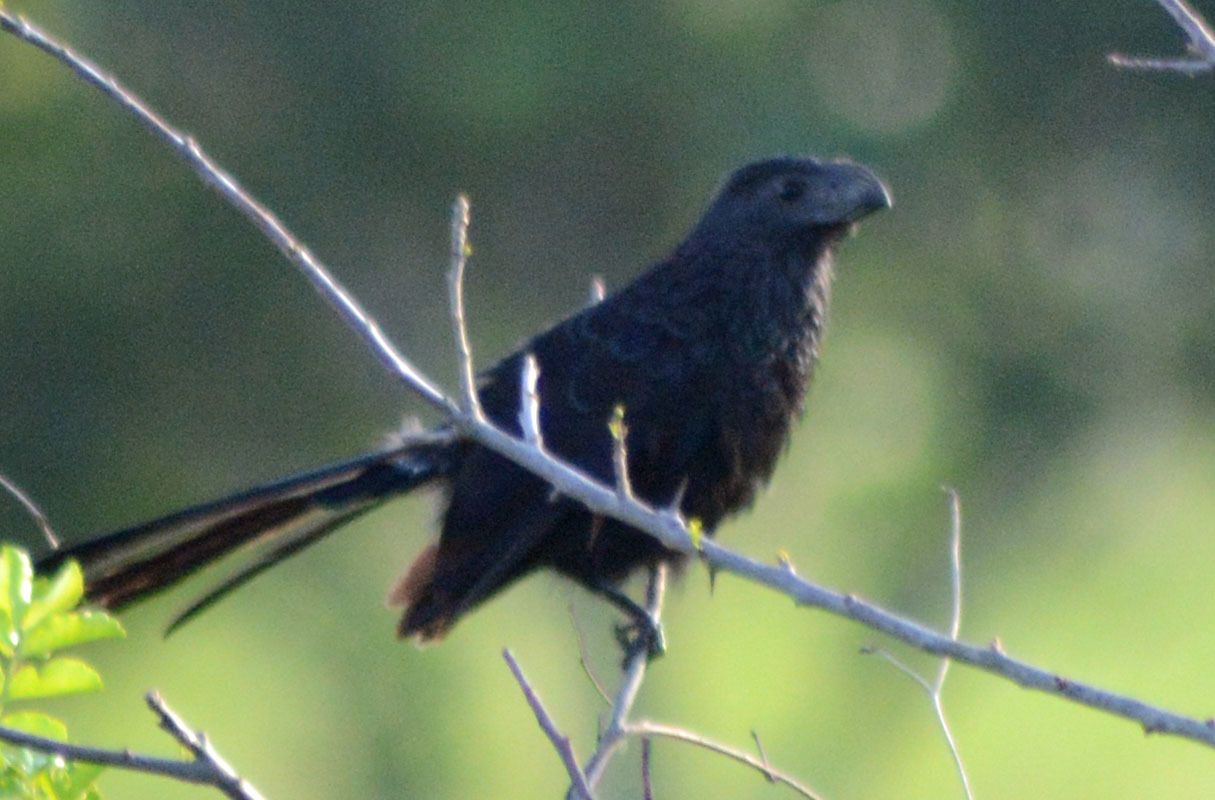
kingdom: Animalia
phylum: Chordata
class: Aves
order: Cuculiformes
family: Cuculidae
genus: Crotophaga
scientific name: Crotophaga sulcirostris
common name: Groove-billed ani
